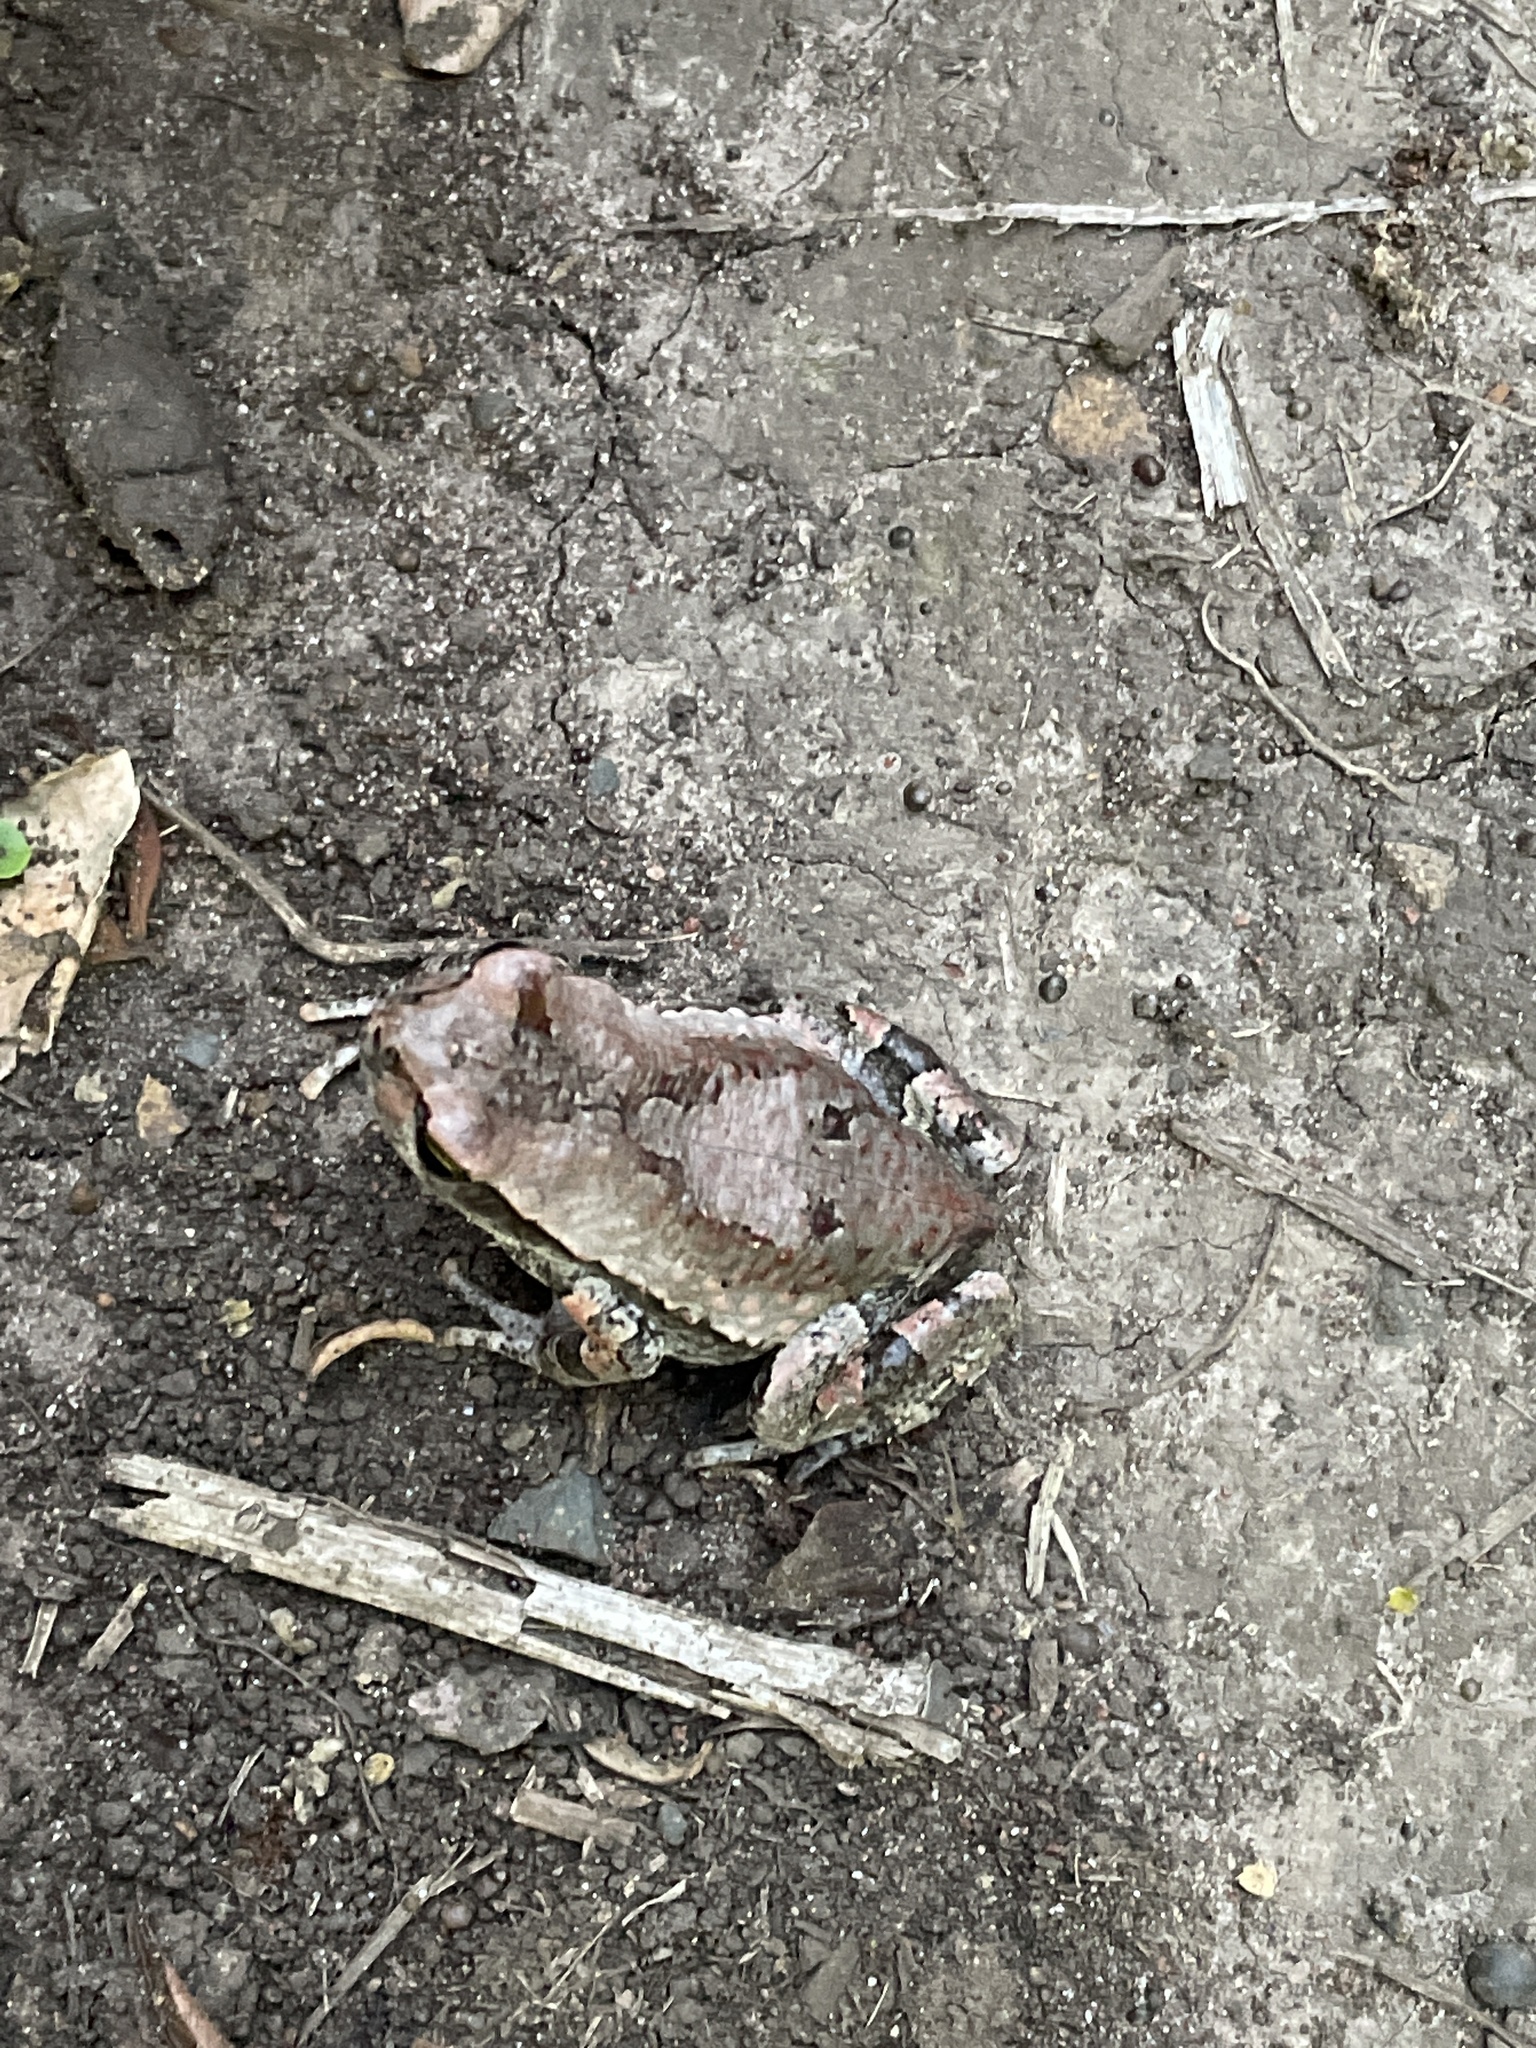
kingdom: Animalia
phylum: Chordata
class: Amphibia
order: Anura
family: Bufonidae
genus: Schismaderma
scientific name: Schismaderma carens
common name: African split-skin toad
